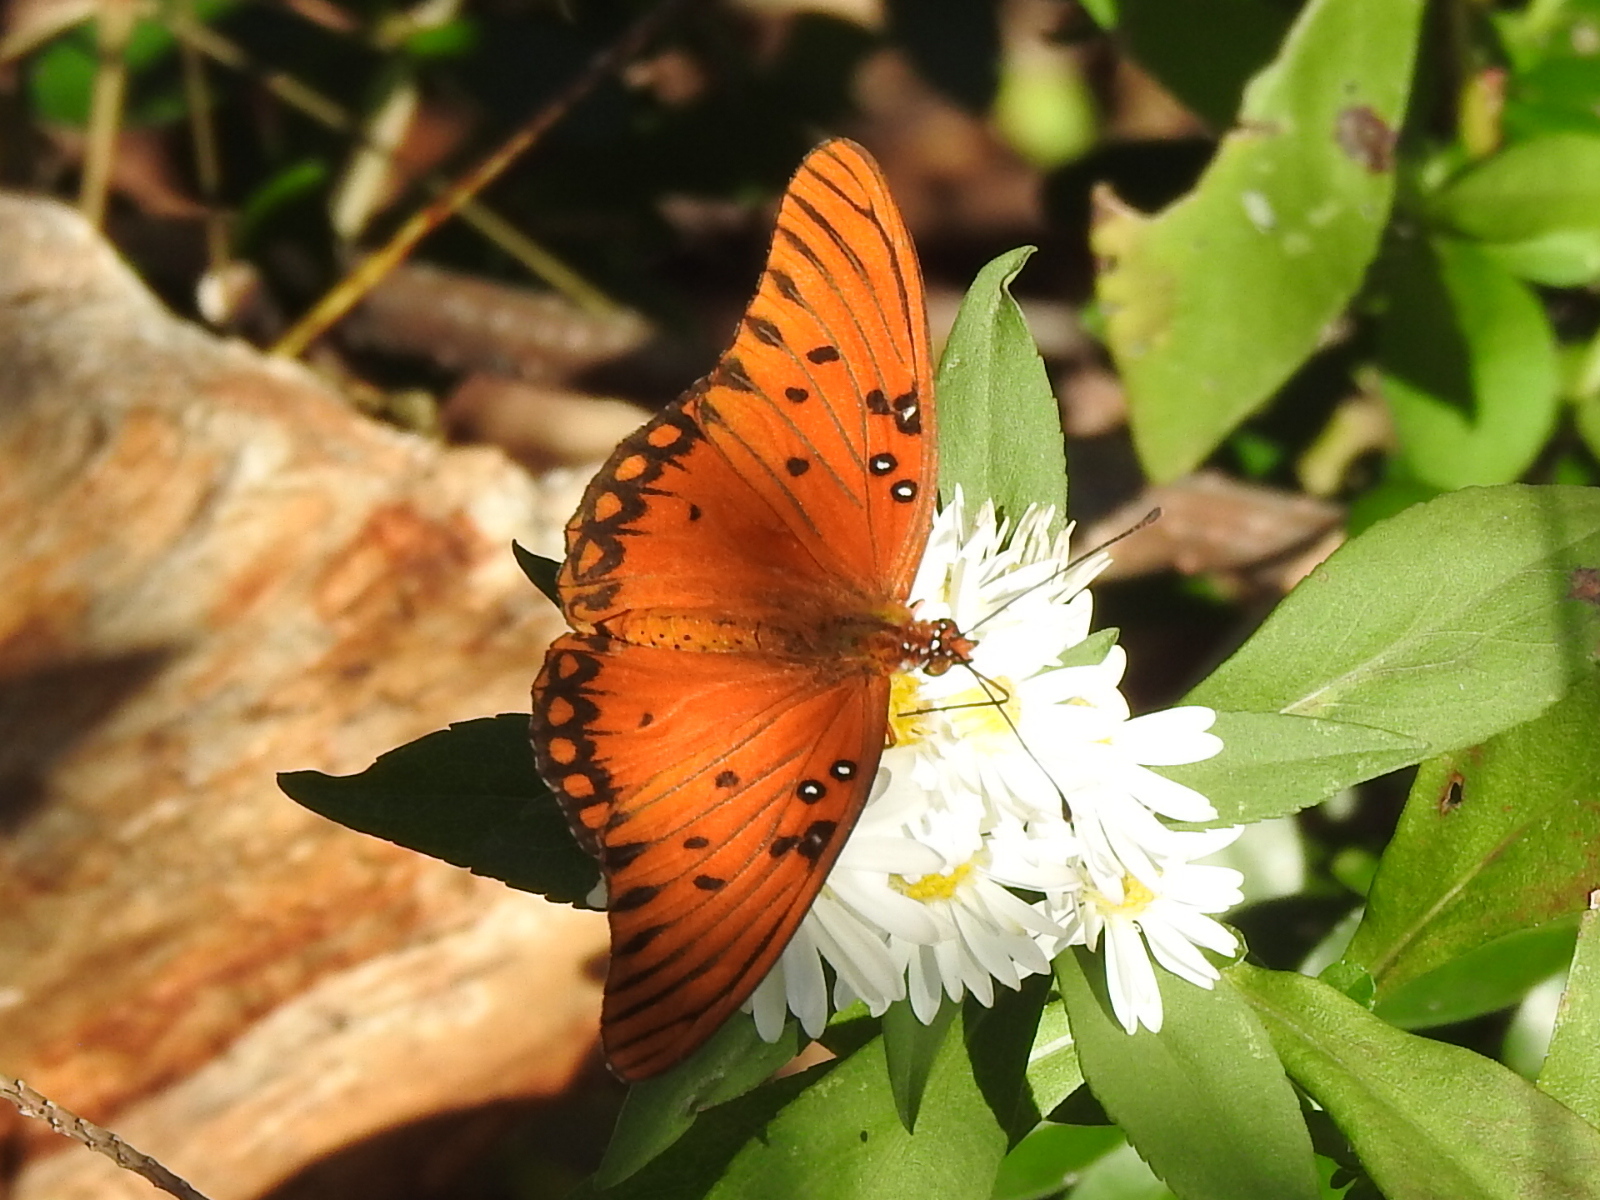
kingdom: Animalia
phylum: Arthropoda
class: Insecta
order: Lepidoptera
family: Nymphalidae
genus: Dione
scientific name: Dione vanillae
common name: Gulf fritillary
